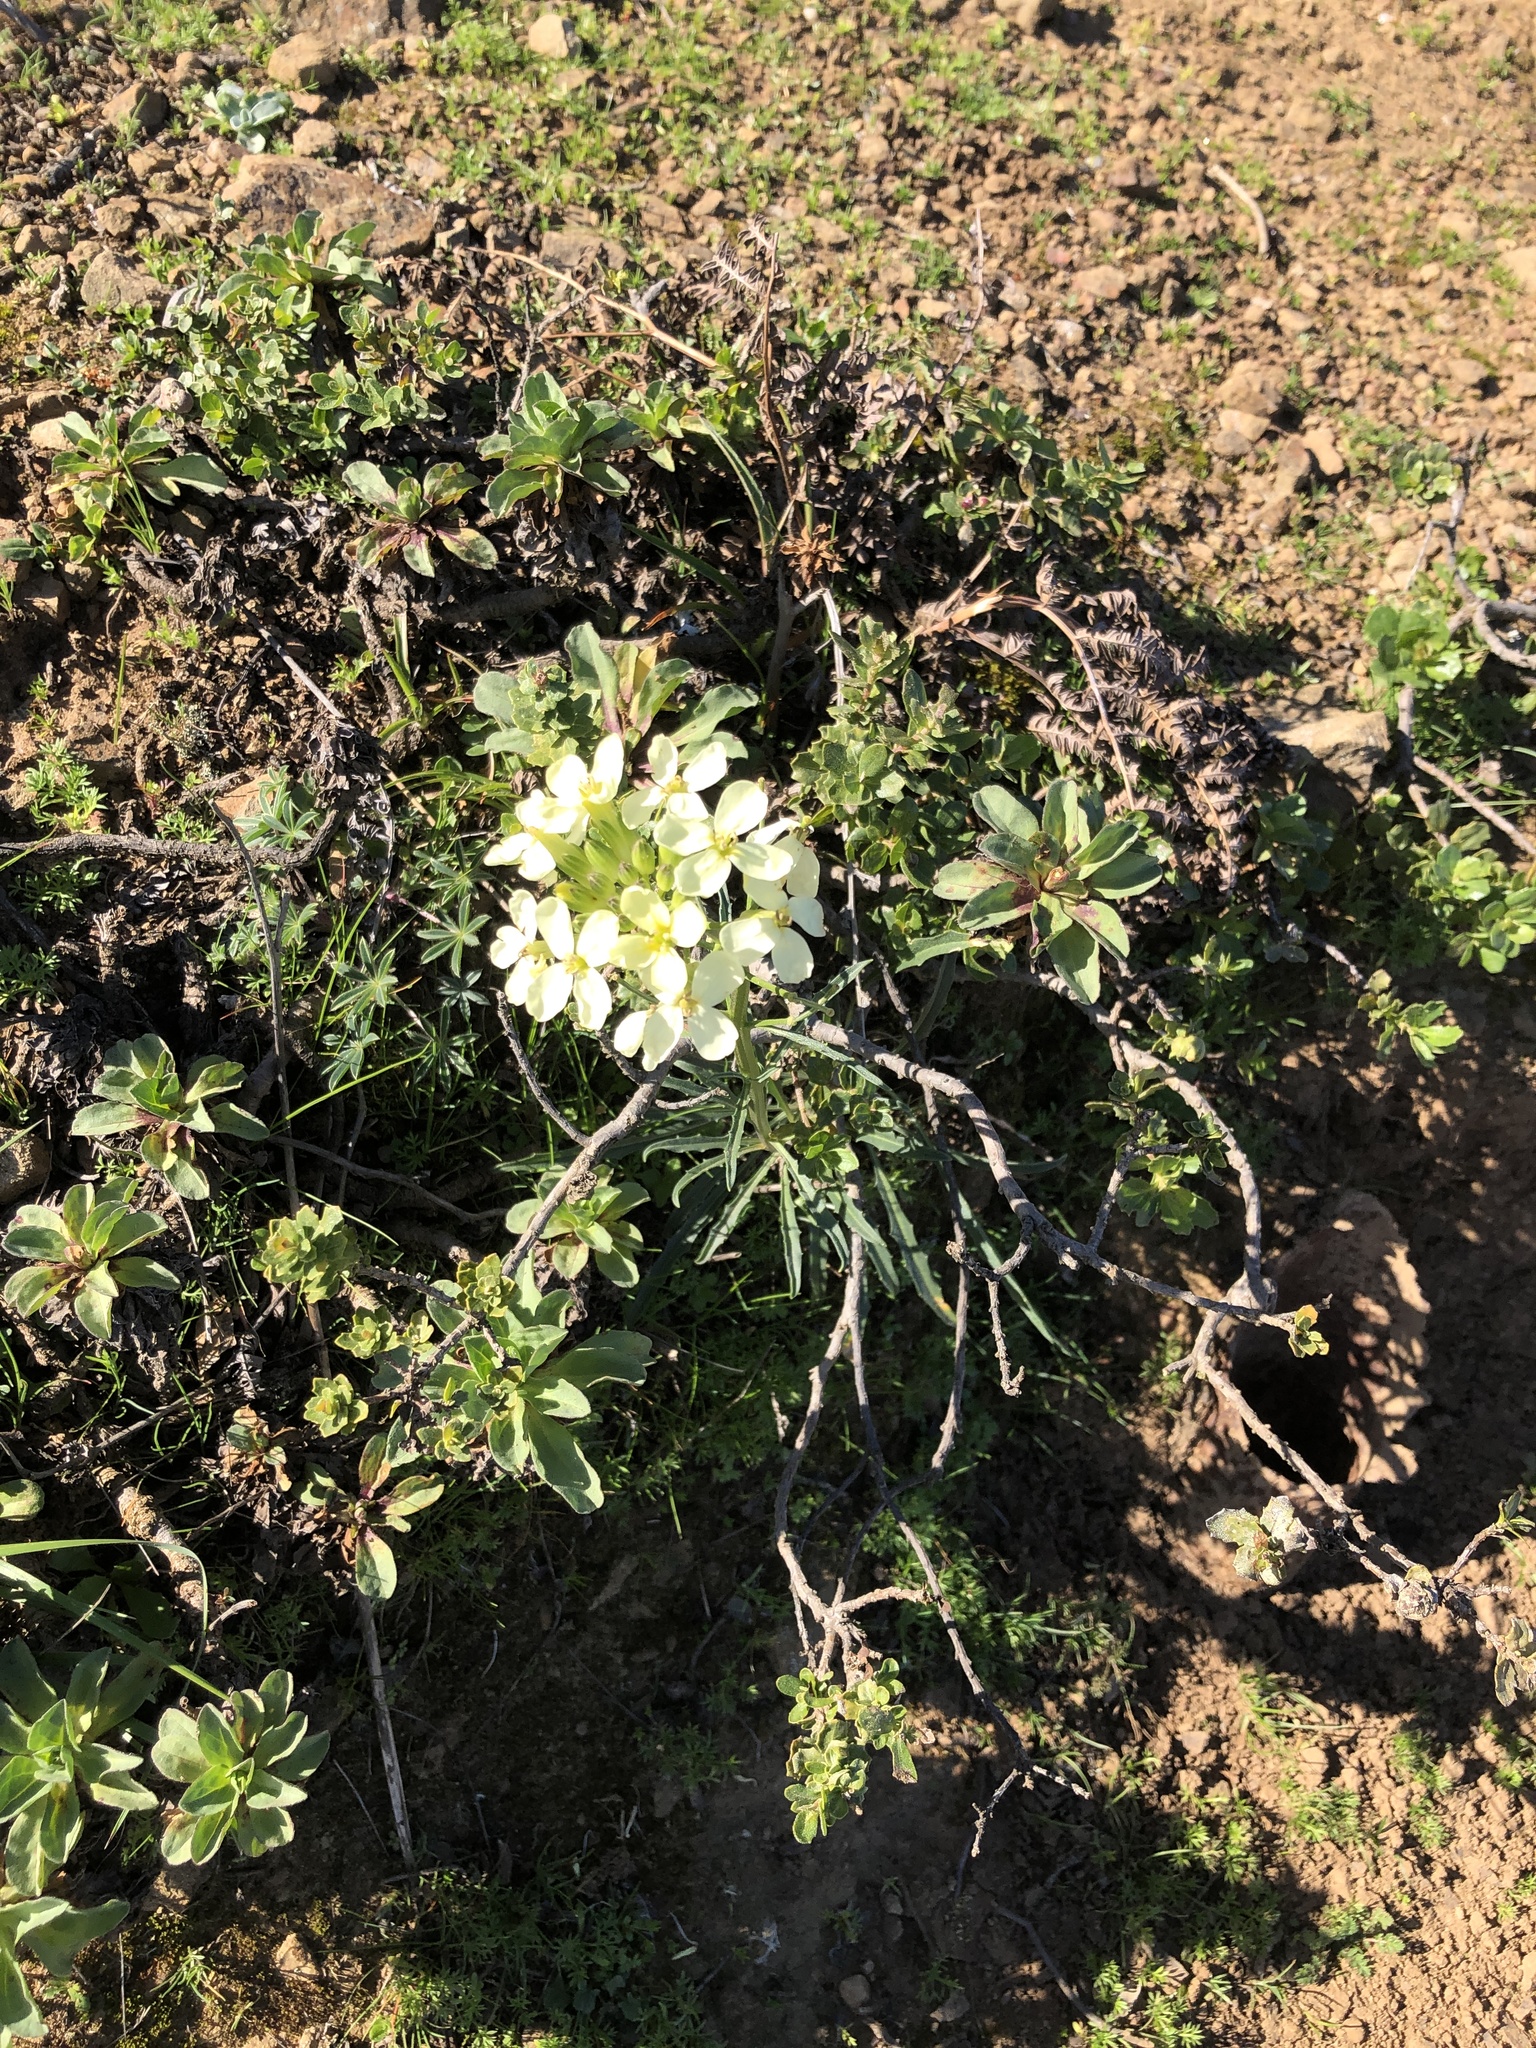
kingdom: Plantae
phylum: Tracheophyta
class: Magnoliopsida
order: Brassicales
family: Brassicaceae
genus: Erysimum
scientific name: Erysimum franciscanum
